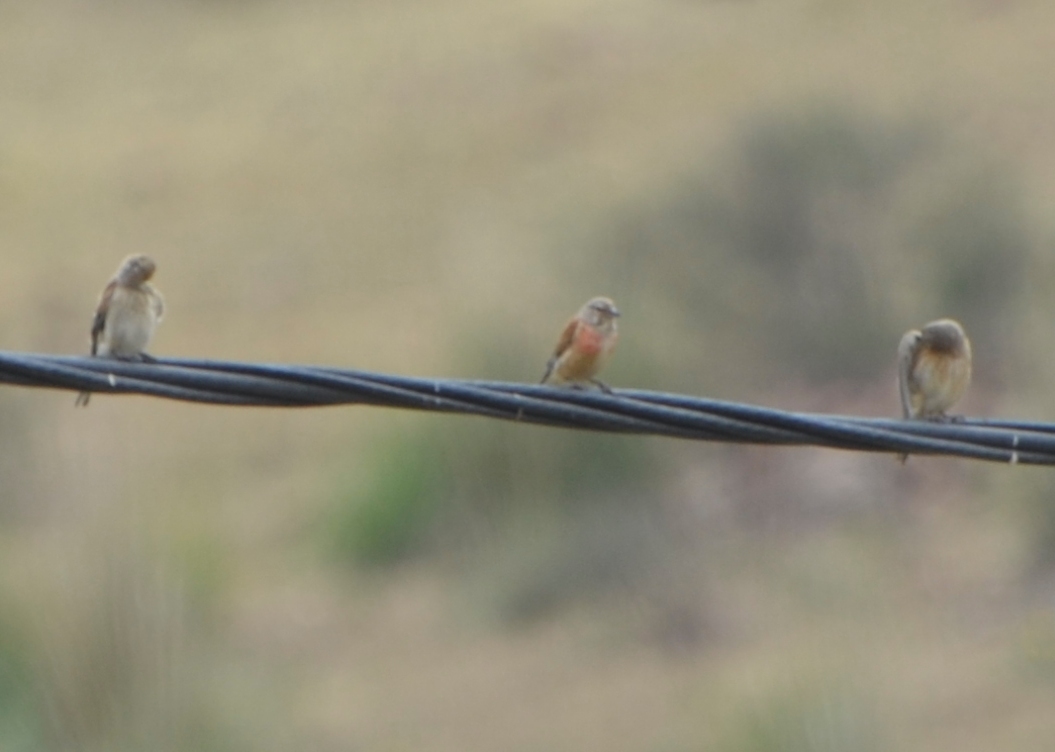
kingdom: Animalia
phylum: Chordata
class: Aves
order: Passeriformes
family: Fringillidae
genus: Linaria
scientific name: Linaria cannabina
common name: Common linnet
